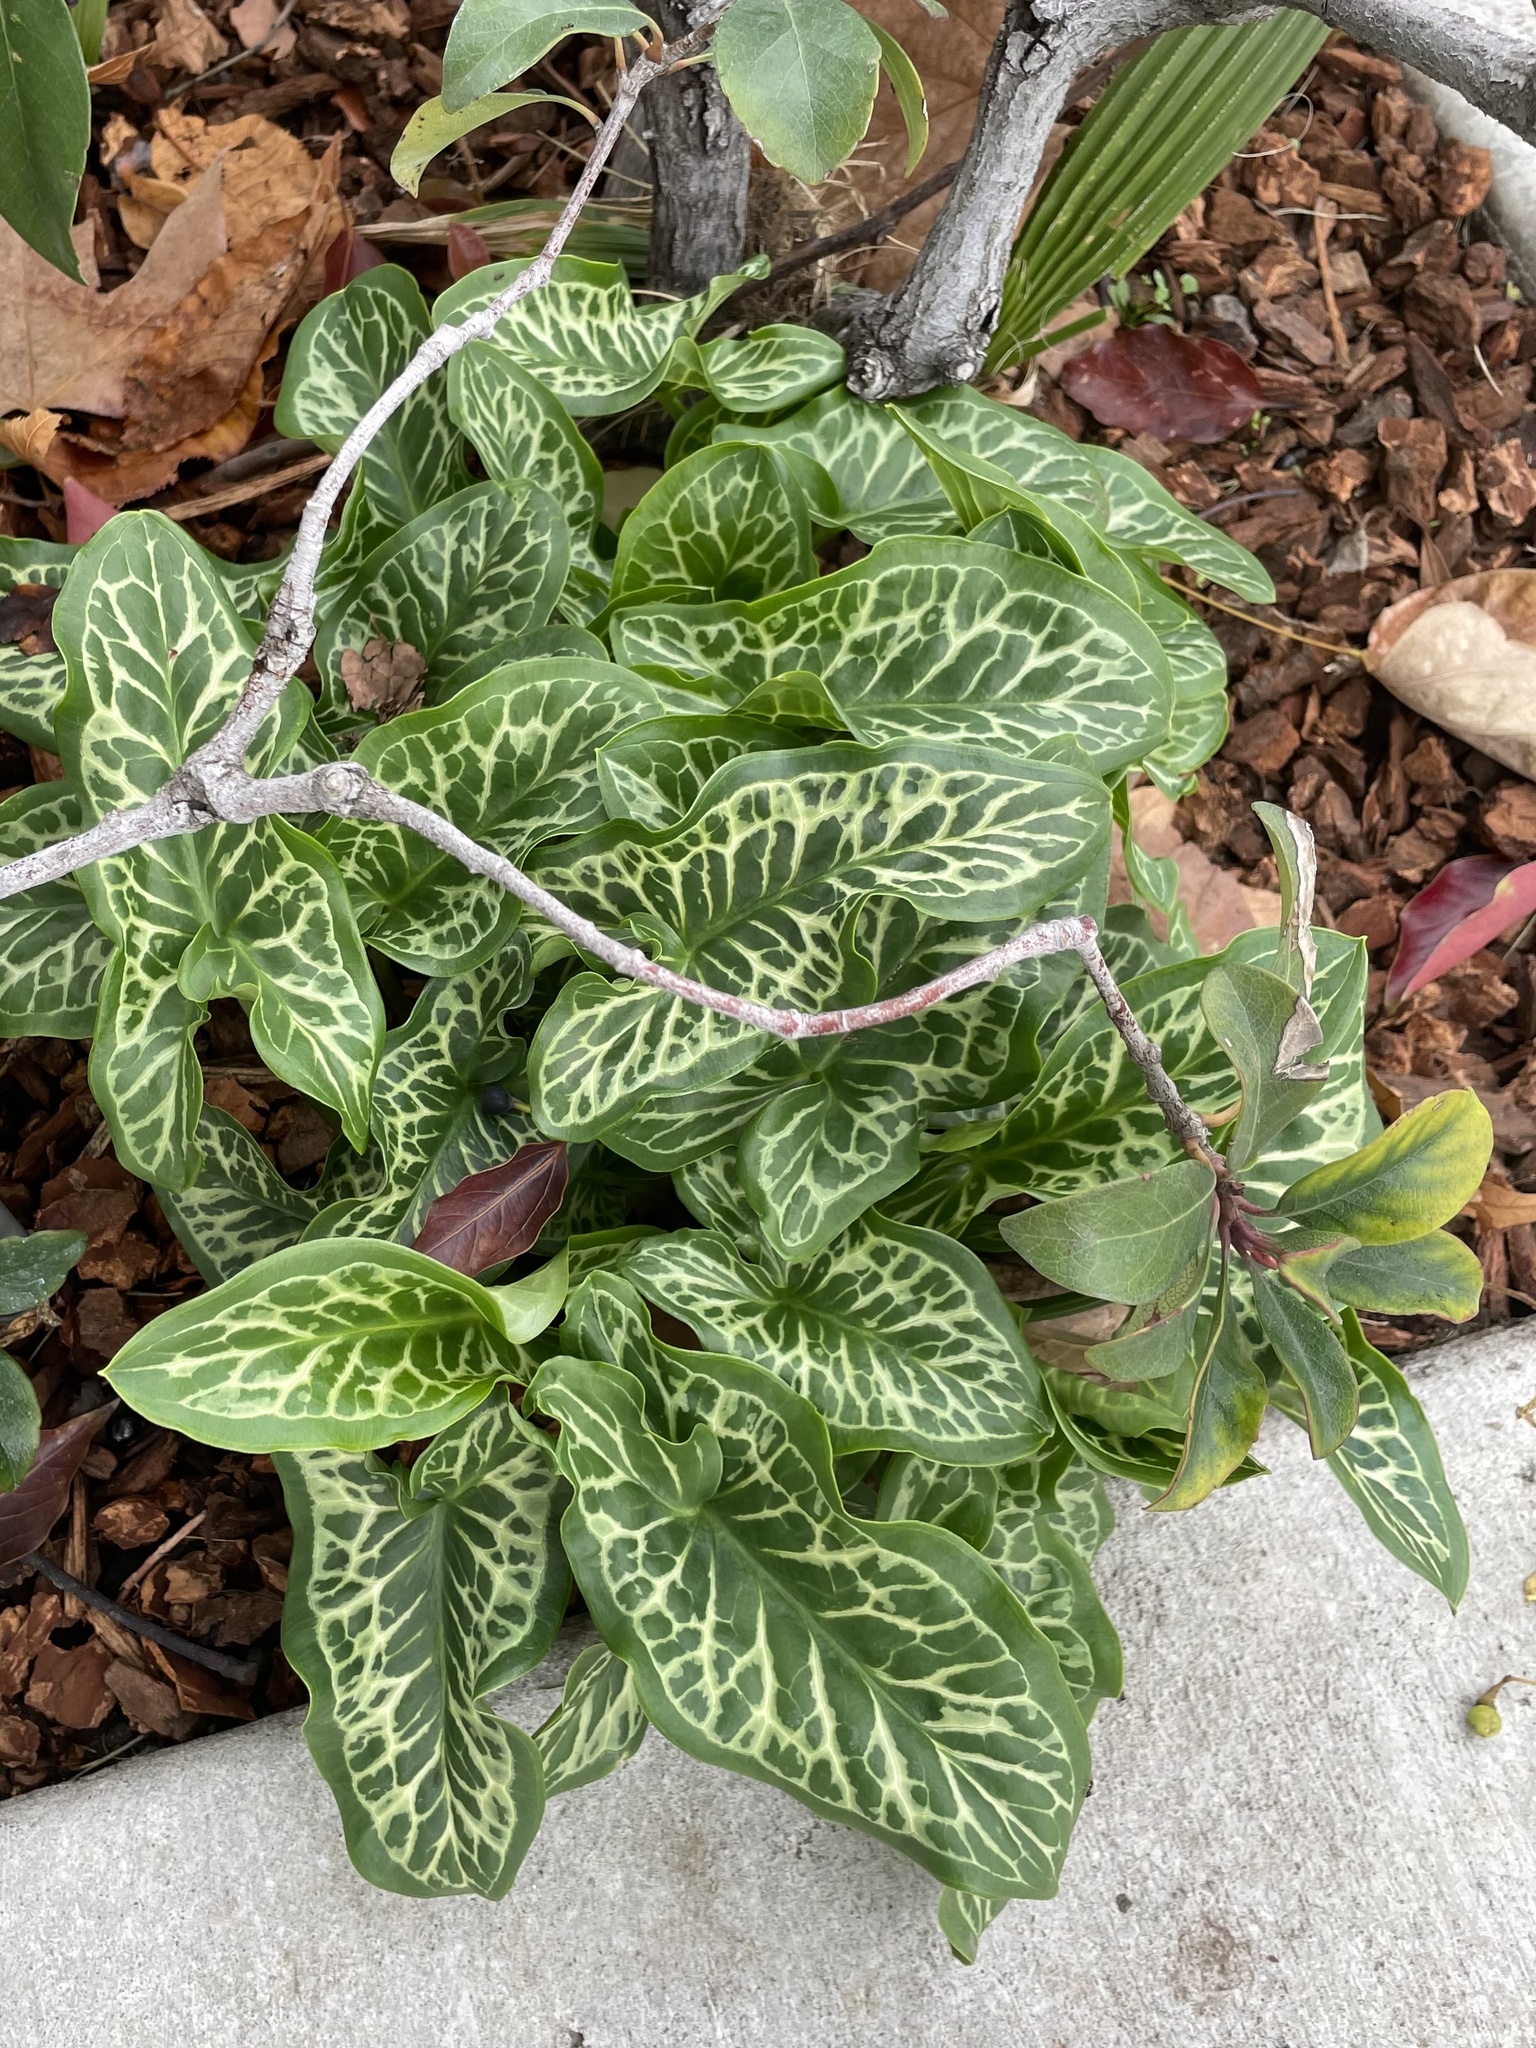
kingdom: Plantae
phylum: Tracheophyta
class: Liliopsida
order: Alismatales
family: Araceae
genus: Arum
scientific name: Arum italicum
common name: Italian lords-and-ladies
